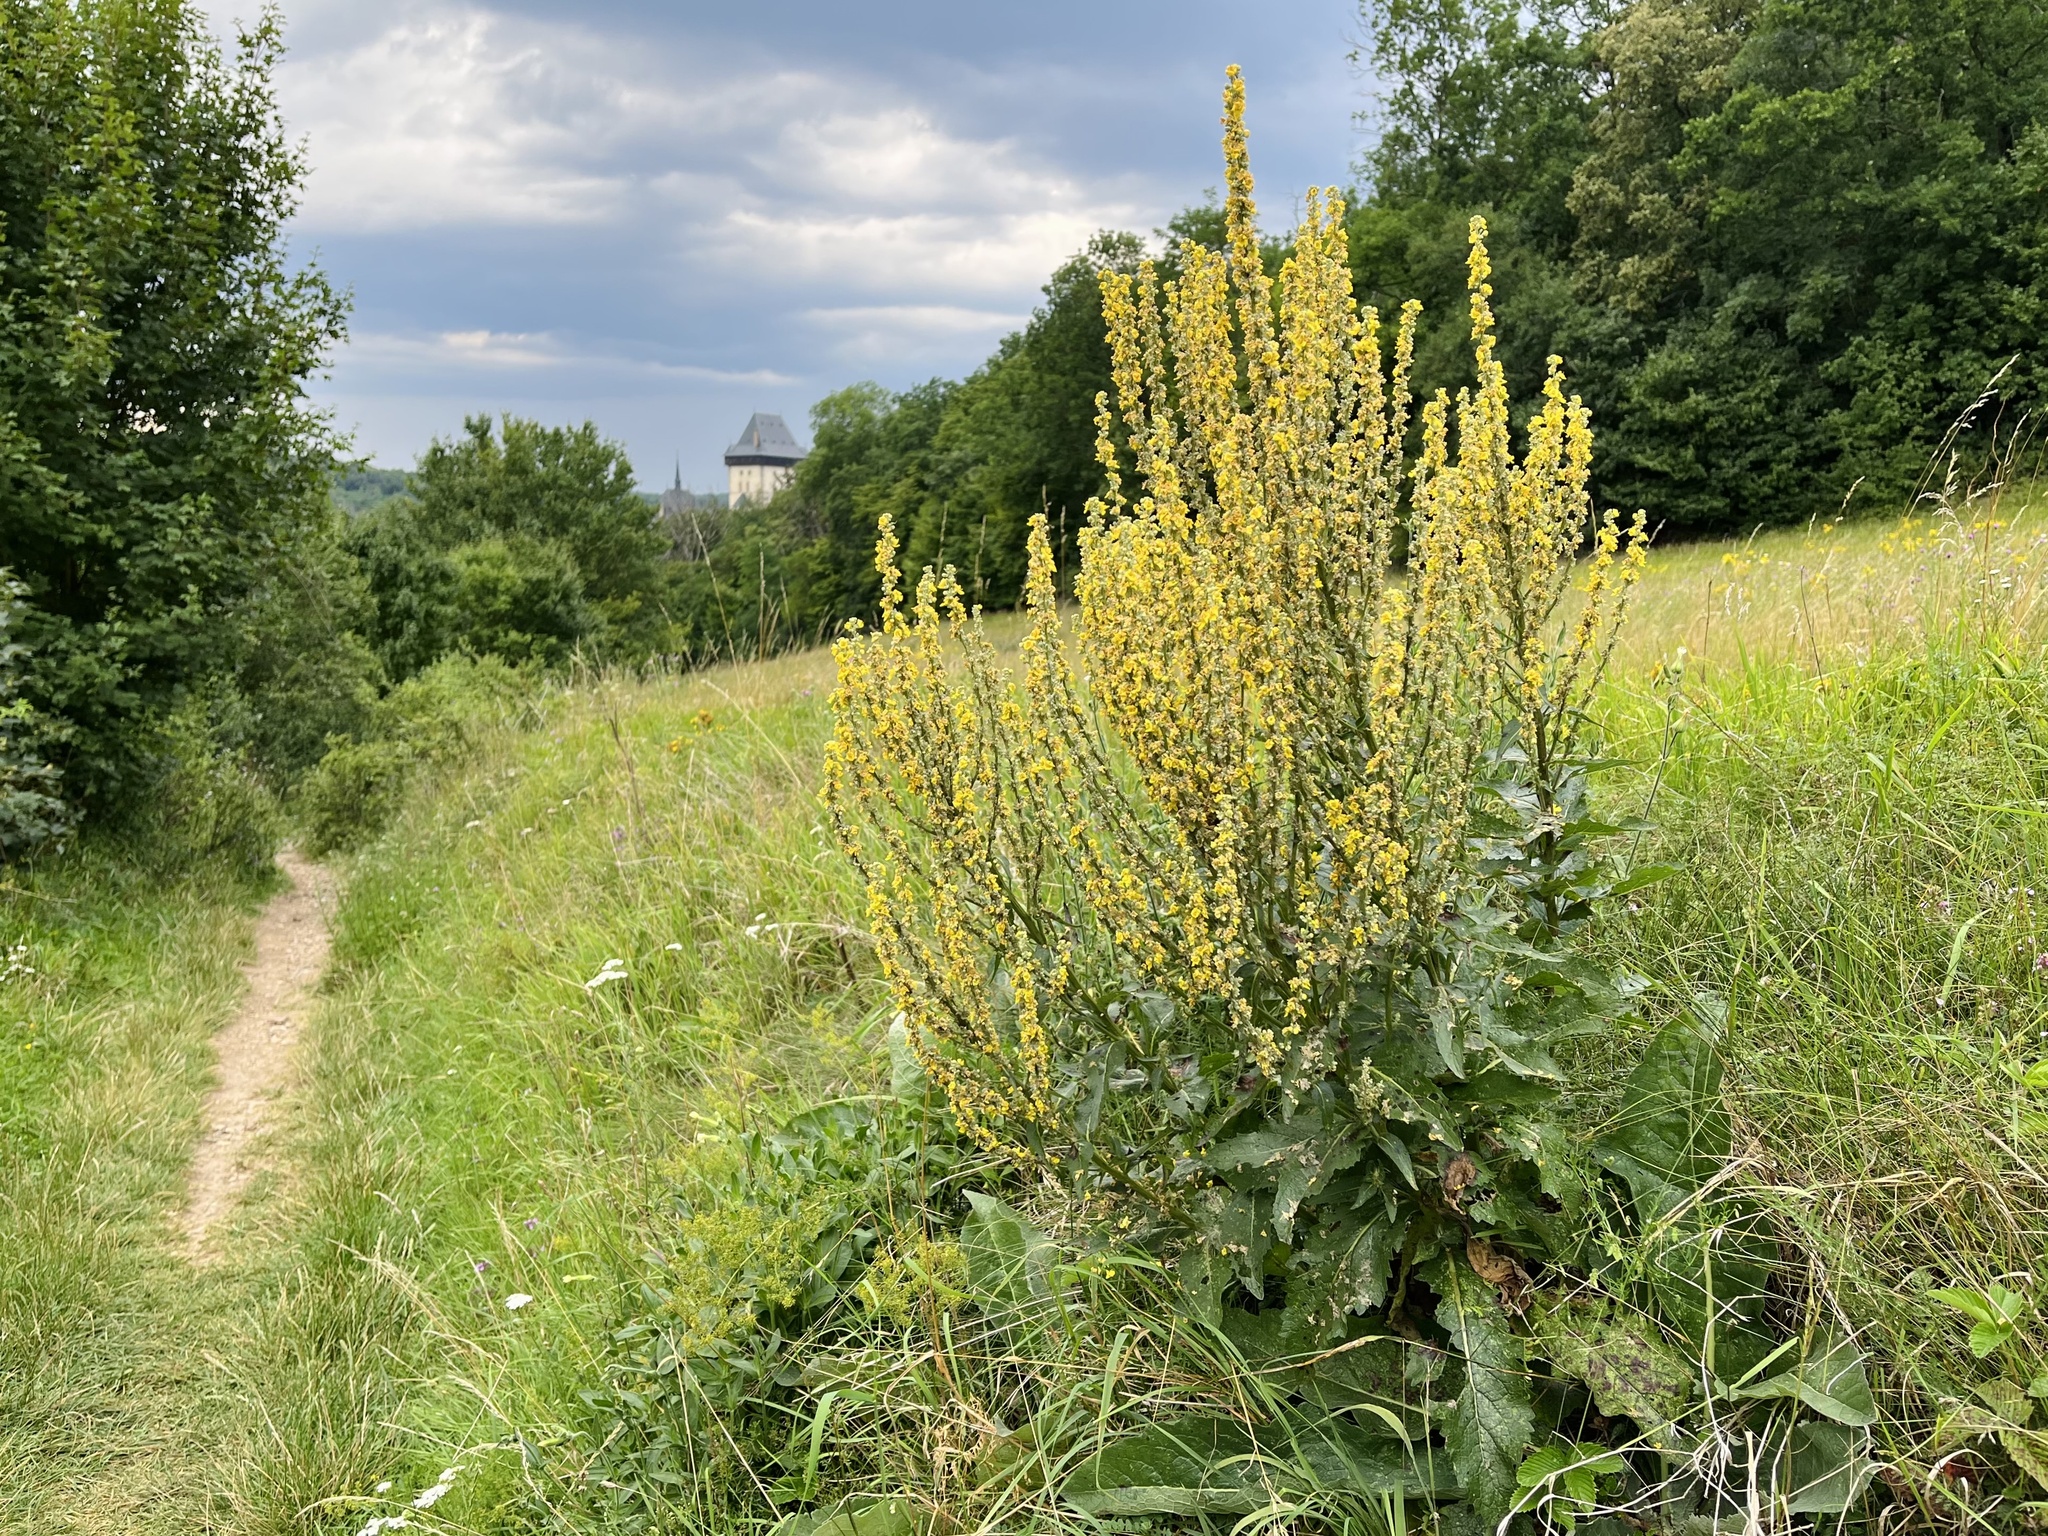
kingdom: Plantae
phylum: Tracheophyta
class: Magnoliopsida
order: Lamiales
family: Scrophulariaceae
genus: Verbascum
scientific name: Verbascum lychnitis
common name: White mullein
